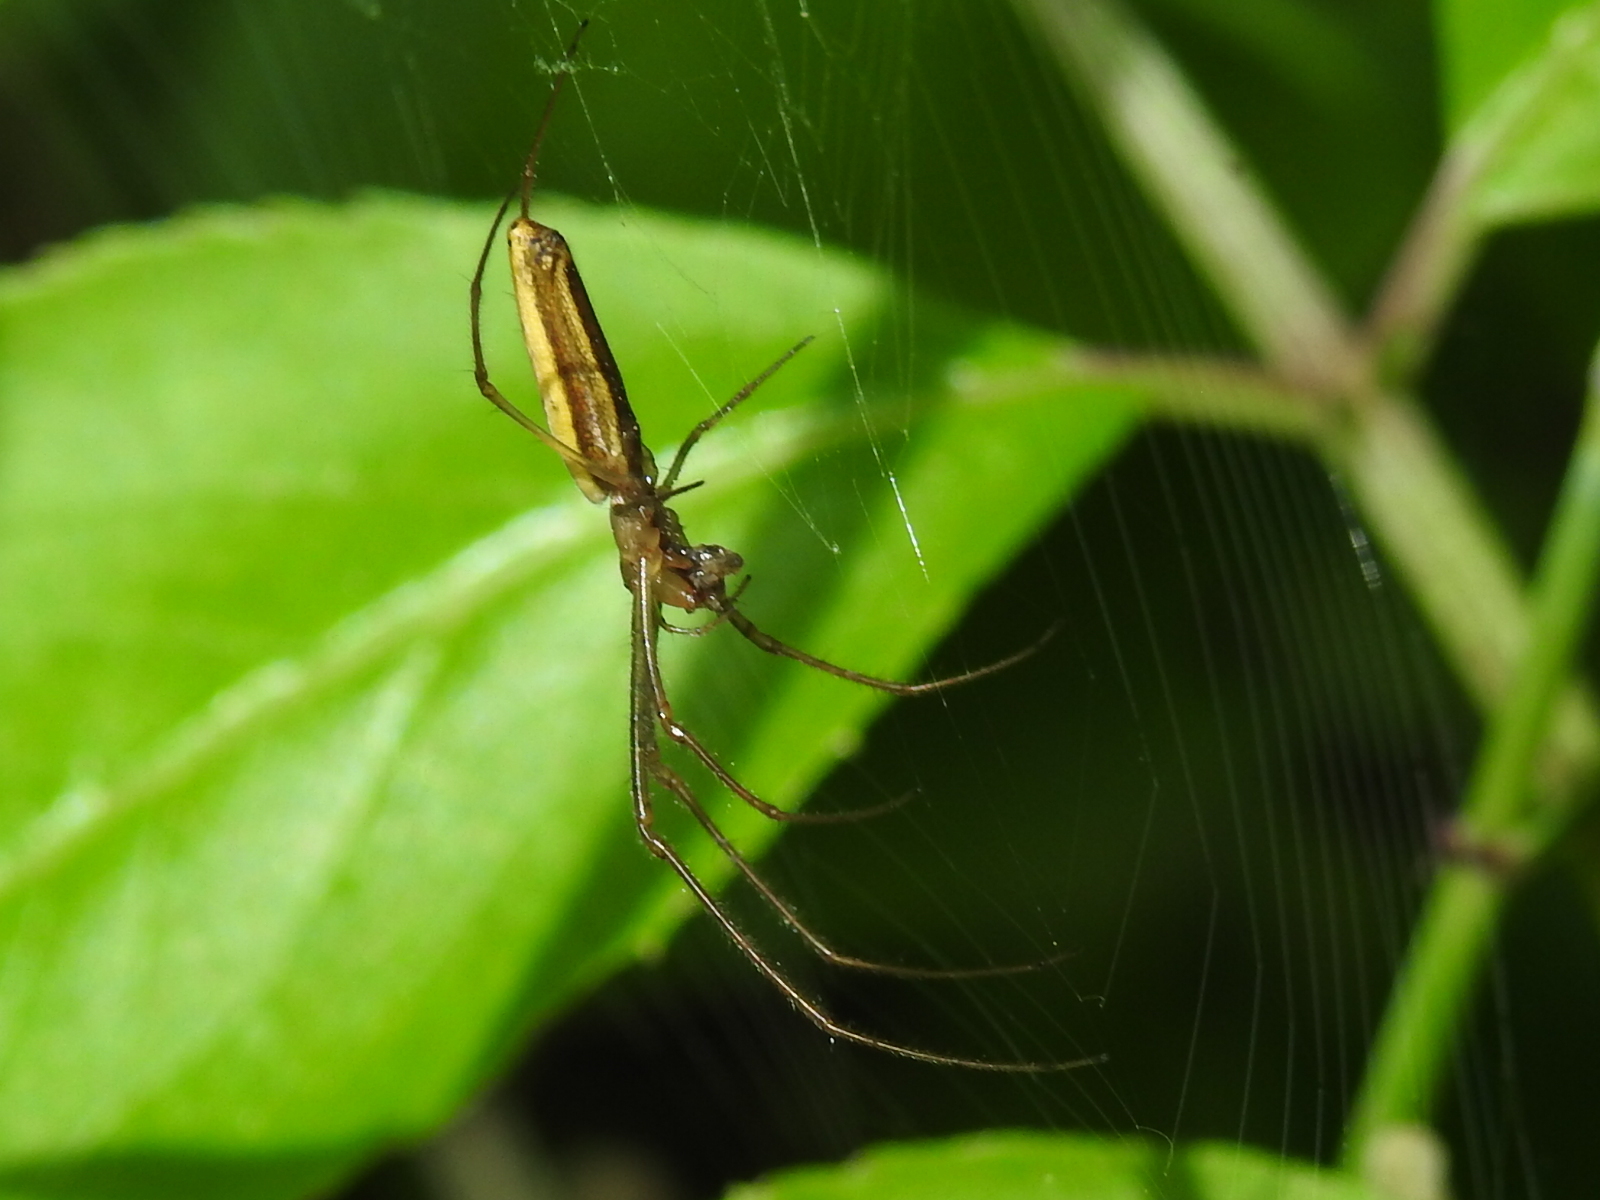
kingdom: Animalia
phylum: Arthropoda
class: Arachnida
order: Araneae
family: Tetragnathidae
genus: Tetragnatha
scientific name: Tetragnatha
